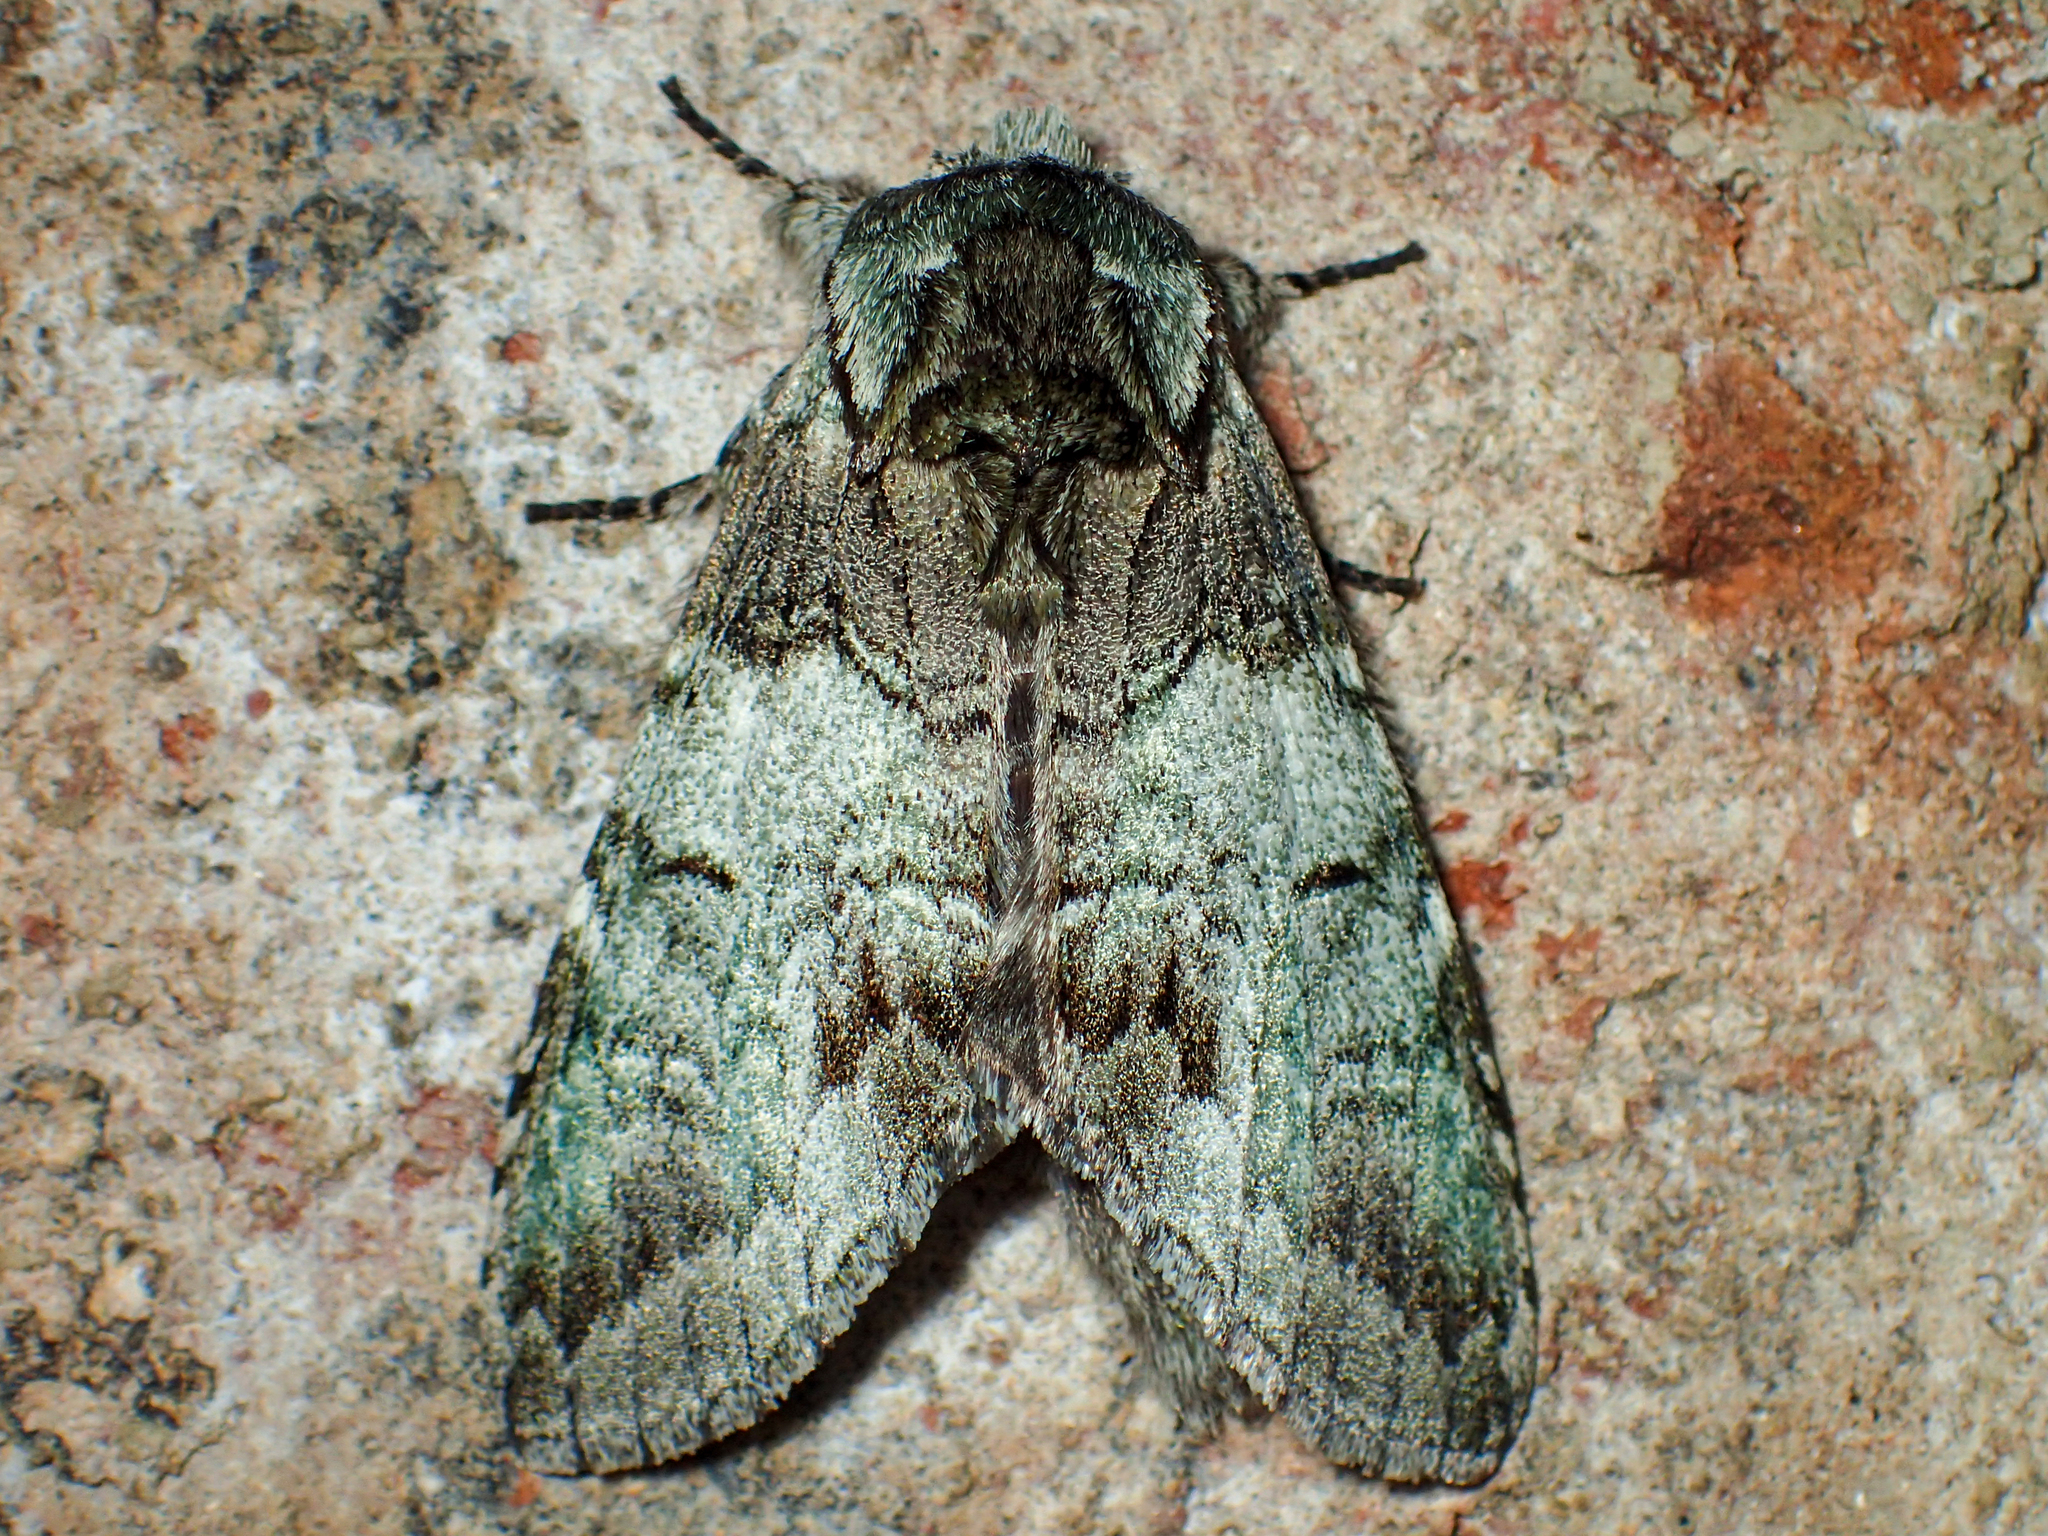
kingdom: Animalia
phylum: Arthropoda
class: Insecta
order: Lepidoptera
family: Notodontidae
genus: Macrurocampa
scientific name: Macrurocampa marthesia
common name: Mottled prominent
